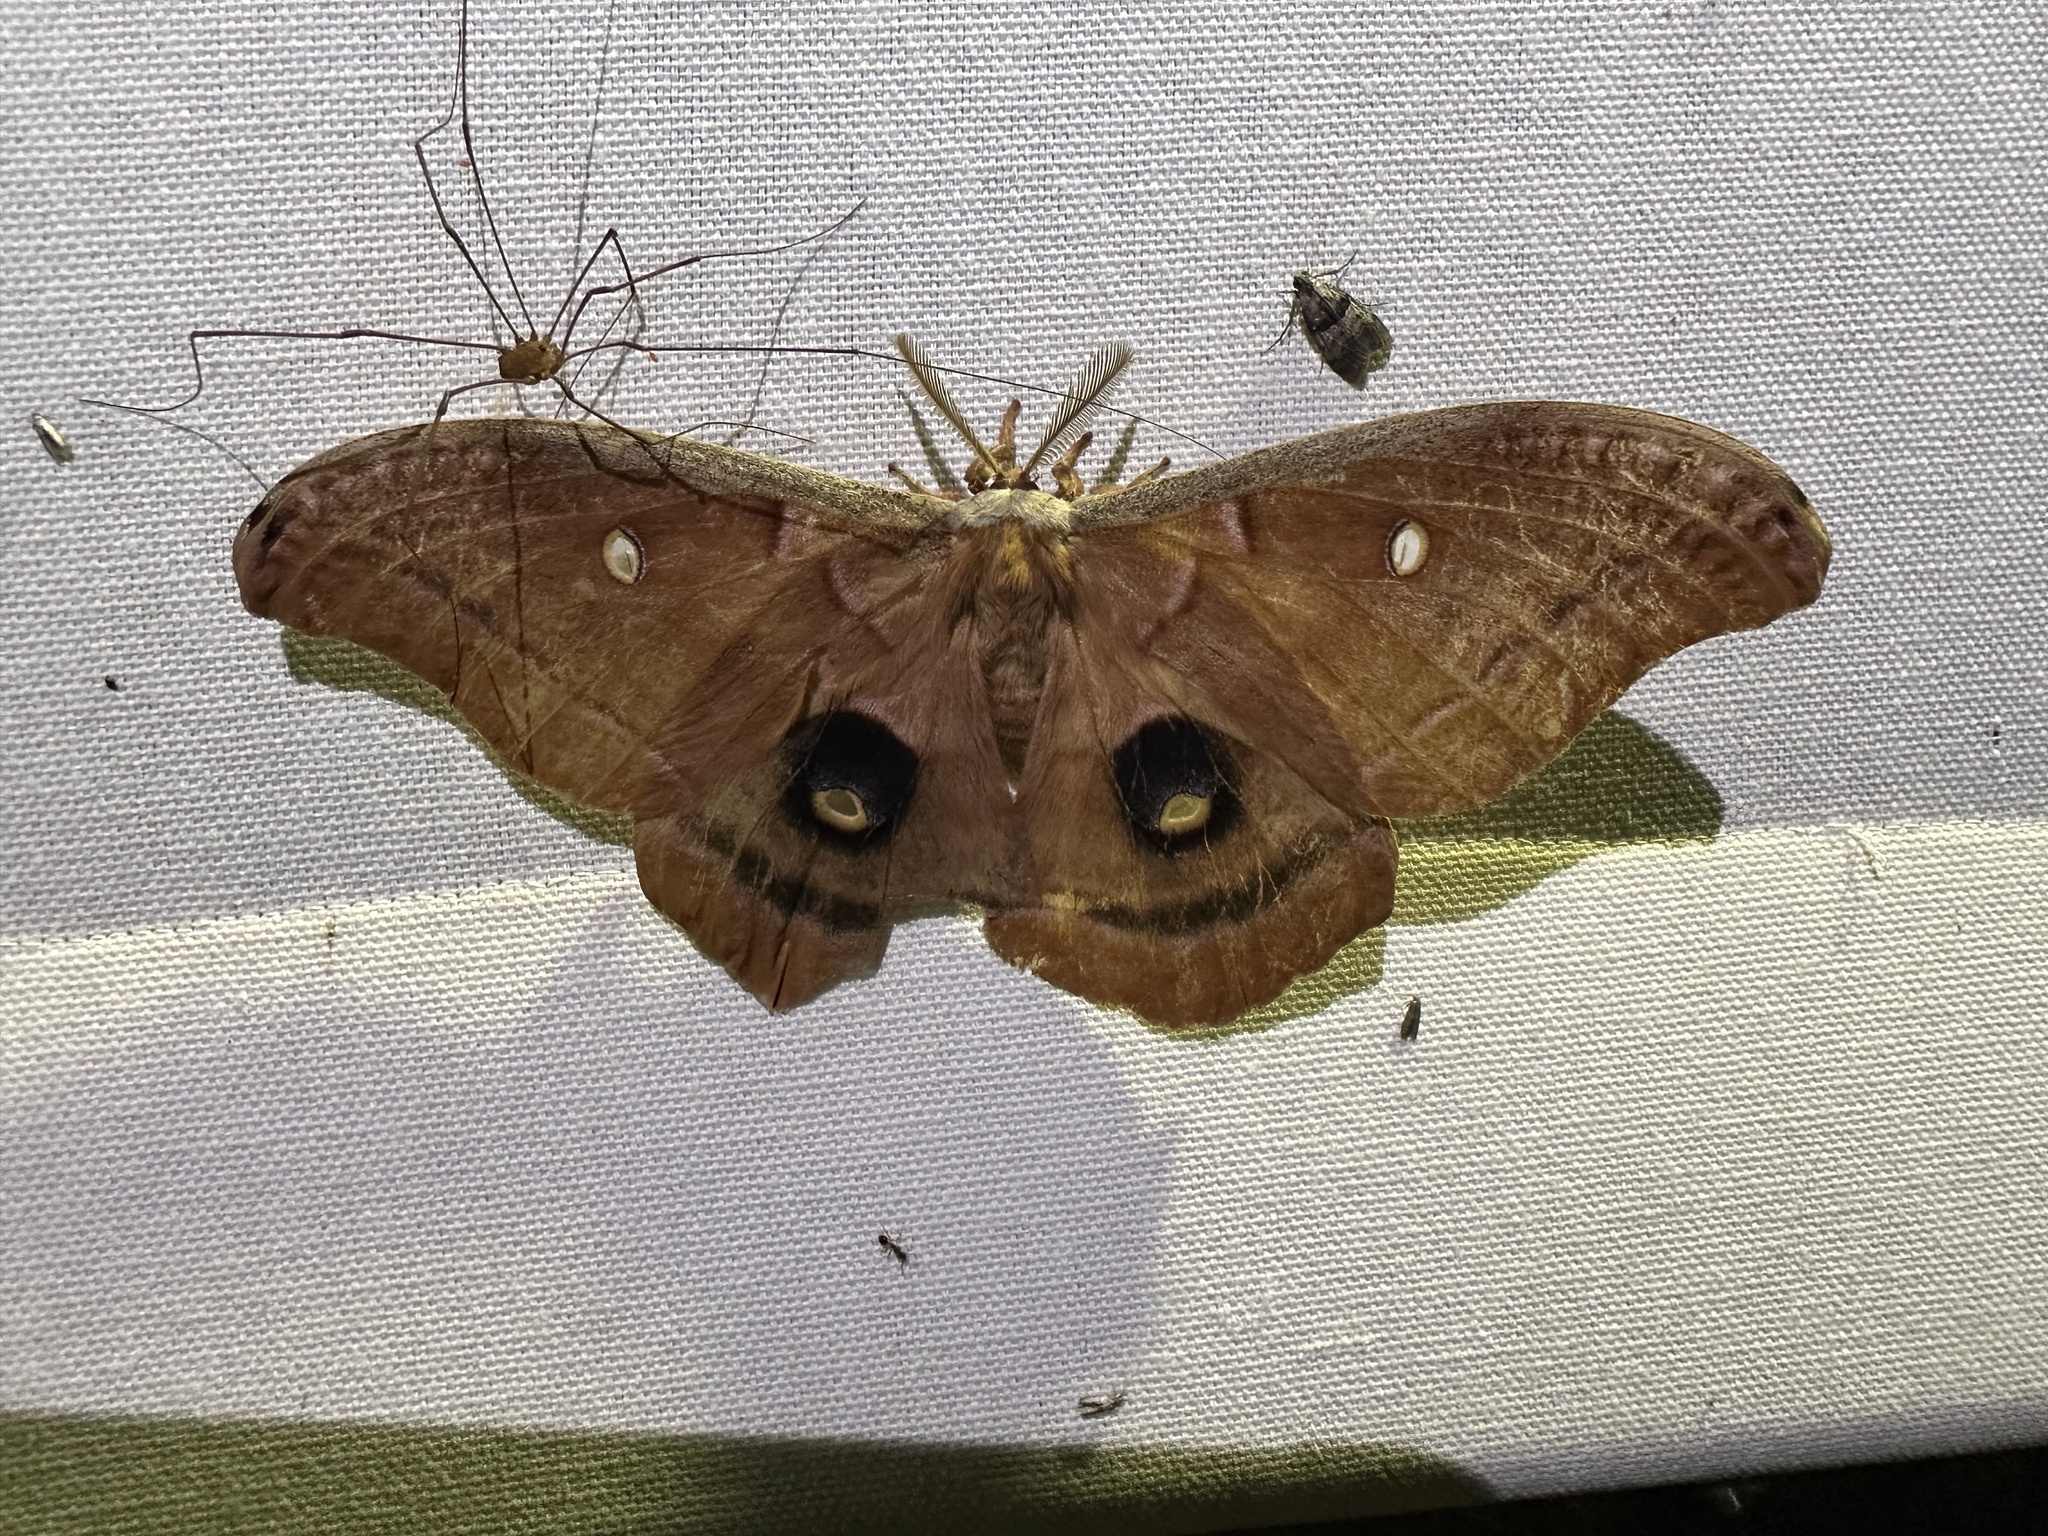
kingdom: Animalia
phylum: Arthropoda
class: Insecta
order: Lepidoptera
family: Saturniidae
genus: Antheraea
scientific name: Antheraea polyphemus
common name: Polyphemus moth
